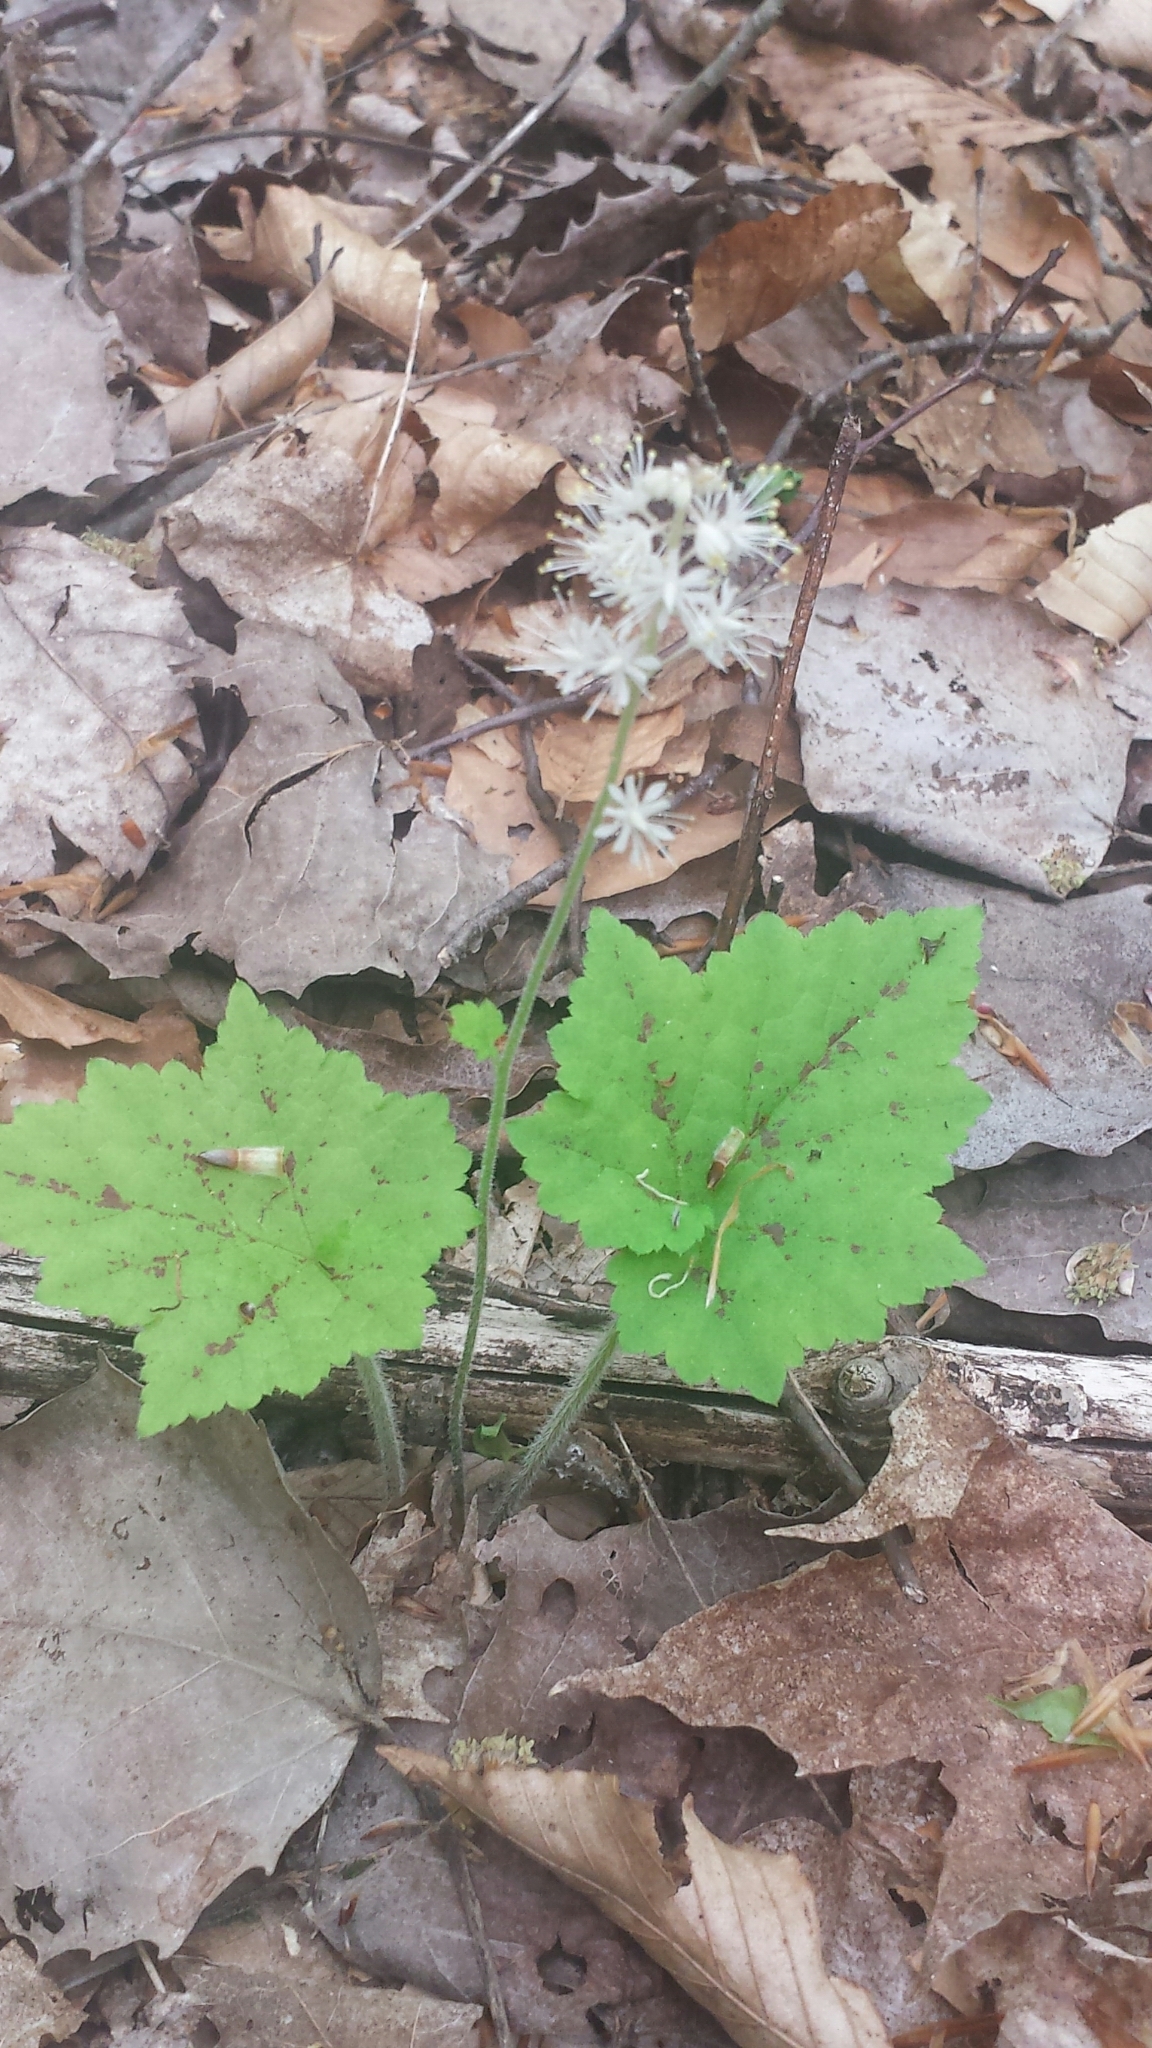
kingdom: Plantae
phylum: Tracheophyta
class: Magnoliopsida
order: Saxifragales
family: Saxifragaceae
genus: Tiarella
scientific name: Tiarella stolonifera
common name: Stoloniferous foamflower
